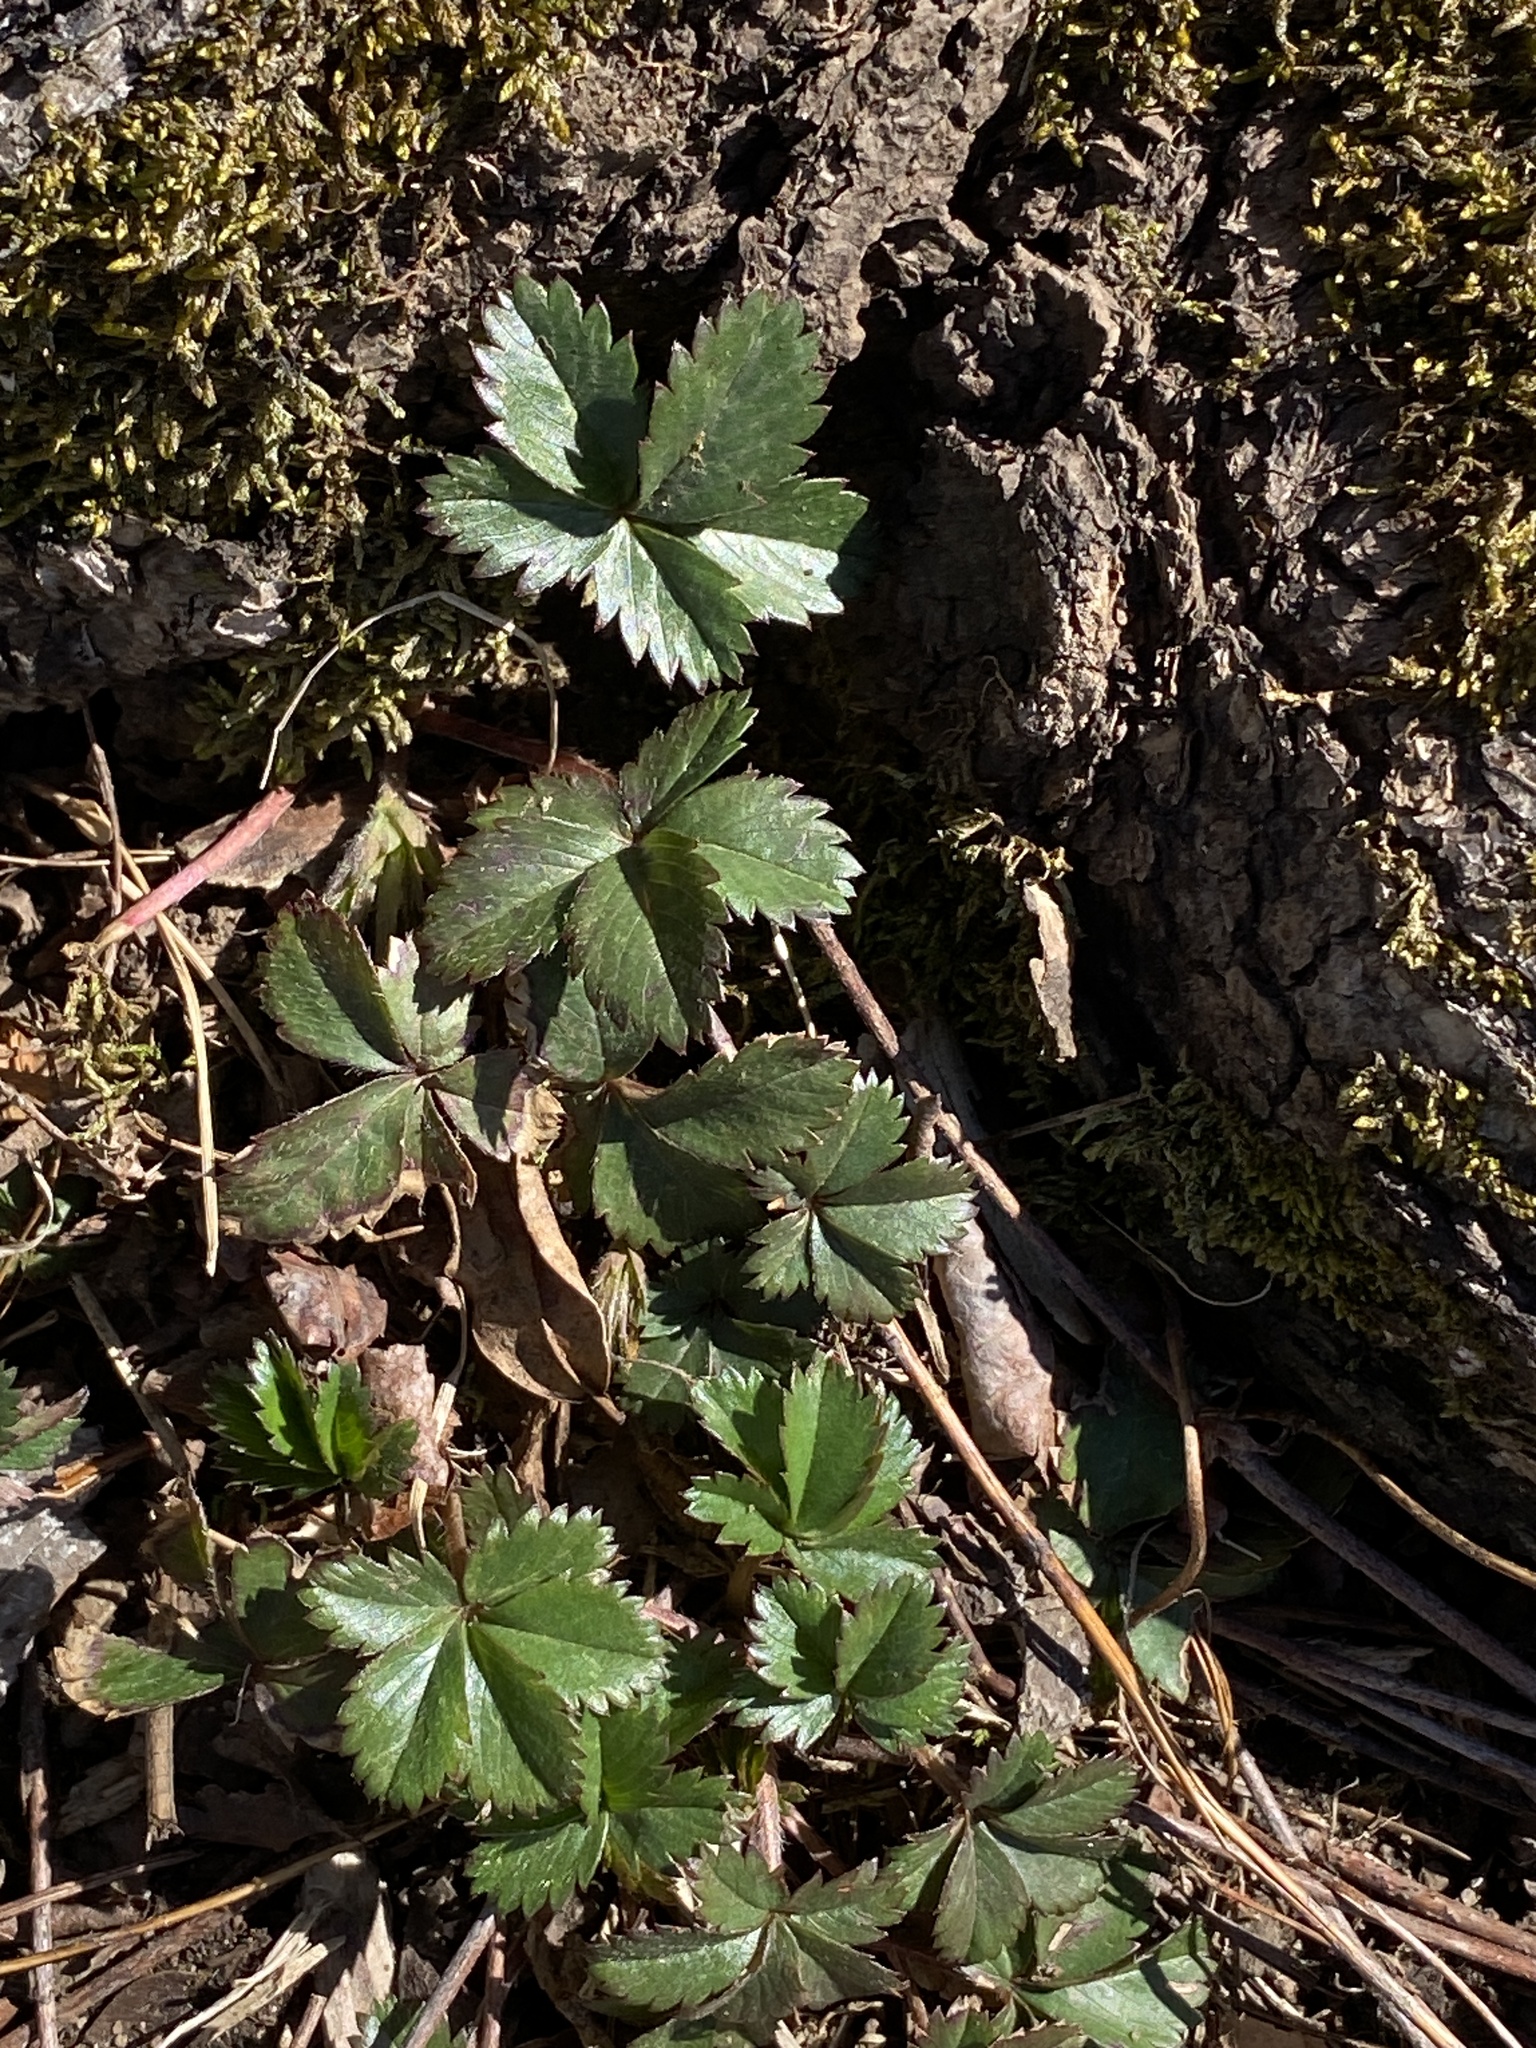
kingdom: Plantae
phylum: Tracheophyta
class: Magnoliopsida
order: Rosales
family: Rosaceae
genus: Potentilla
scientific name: Potentilla canadensis
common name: Canada cinquefoil
